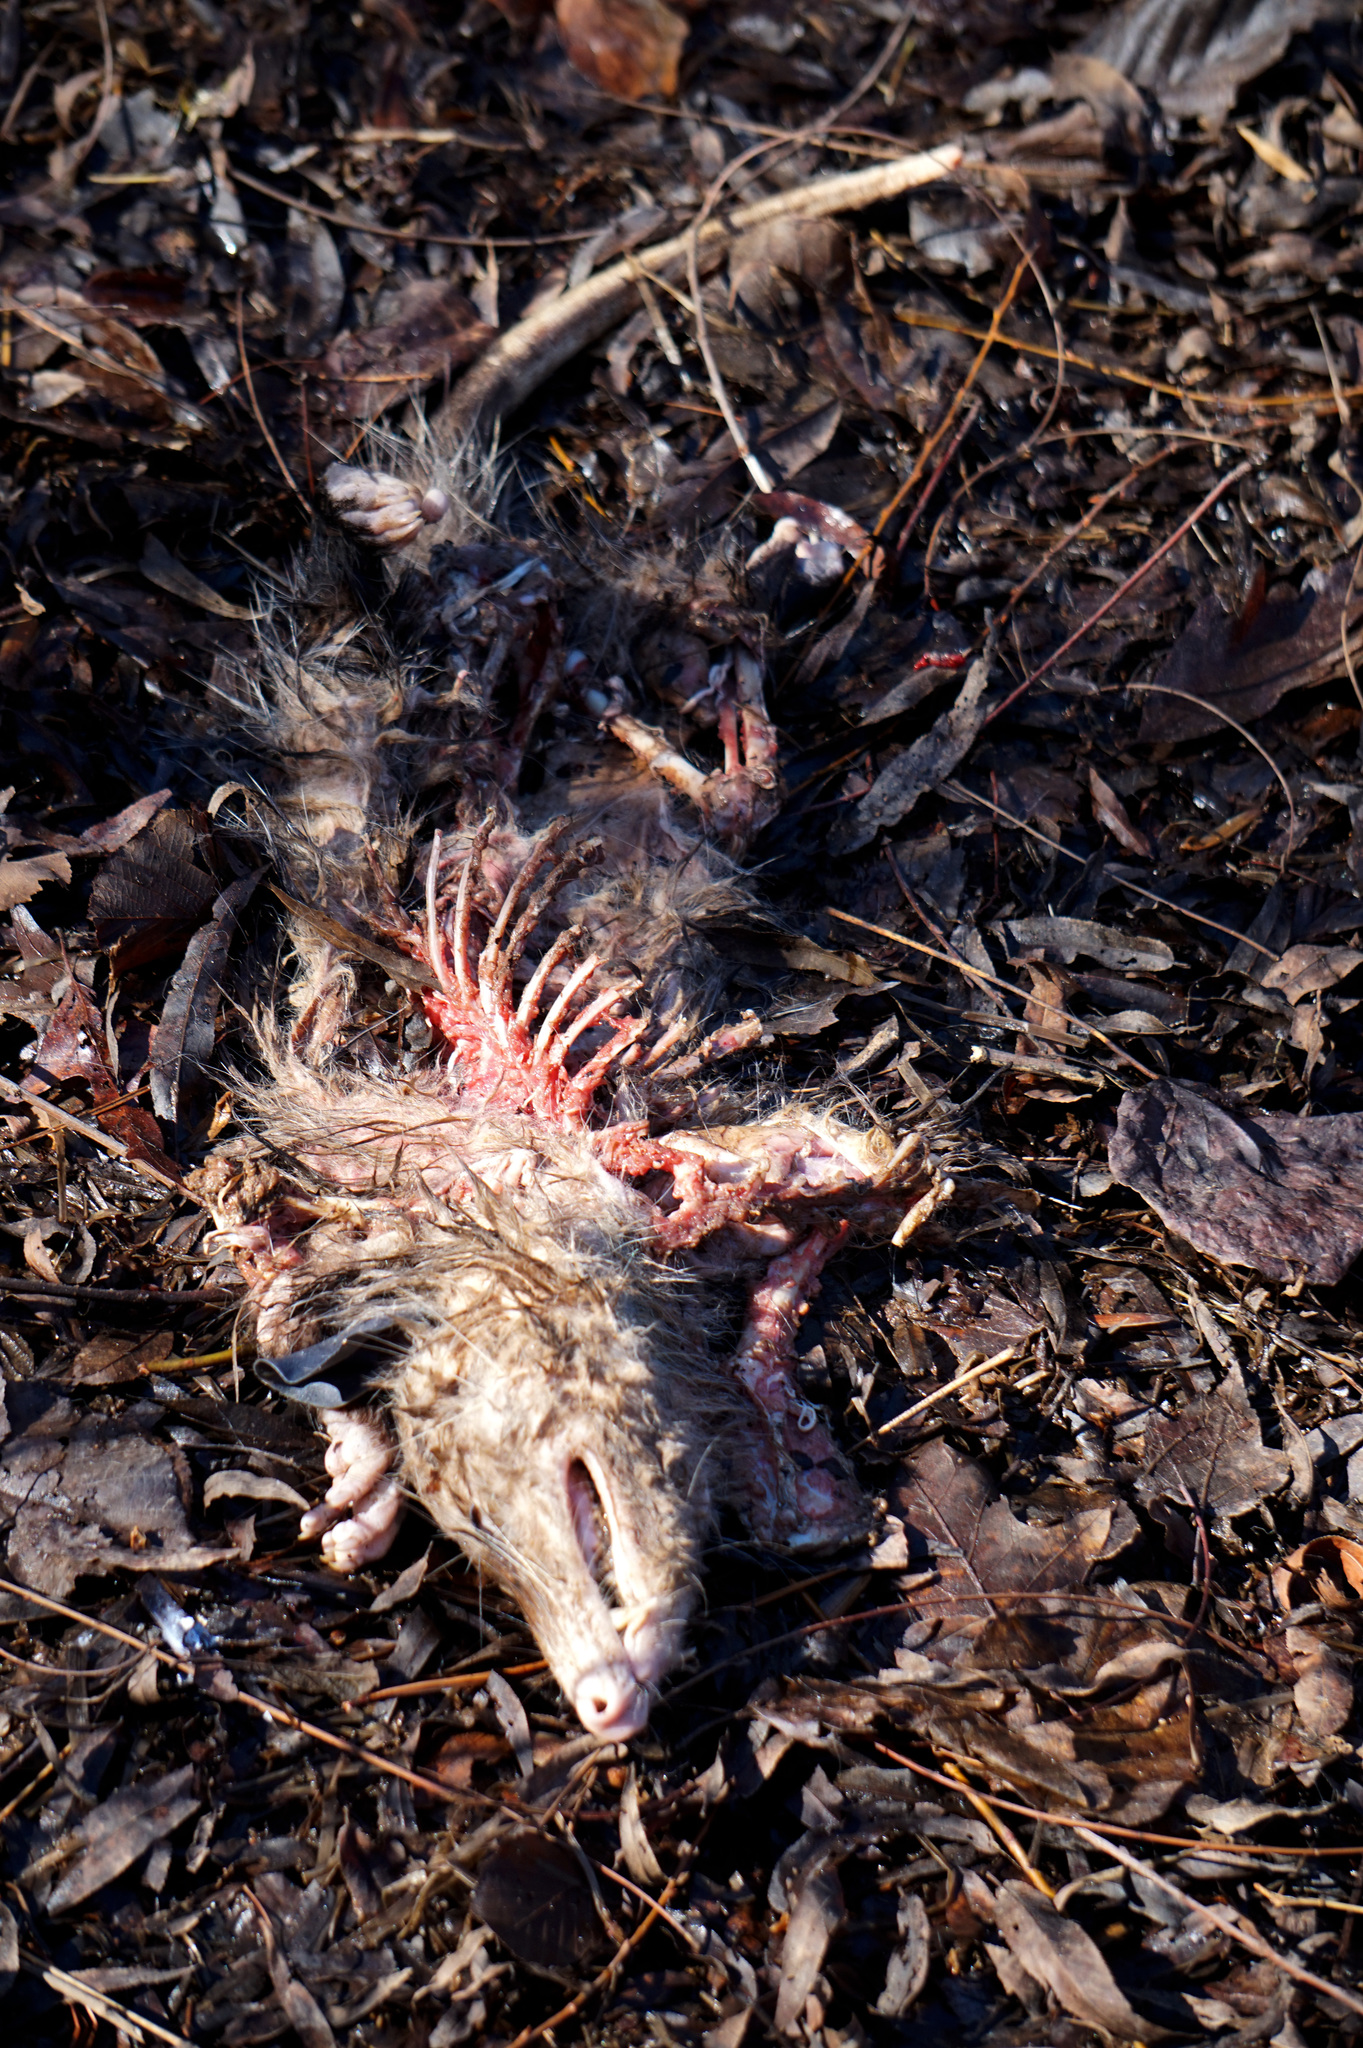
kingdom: Animalia
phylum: Chordata
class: Mammalia
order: Didelphimorphia
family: Didelphidae
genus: Didelphis
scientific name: Didelphis virginiana
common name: Virginia opossum
